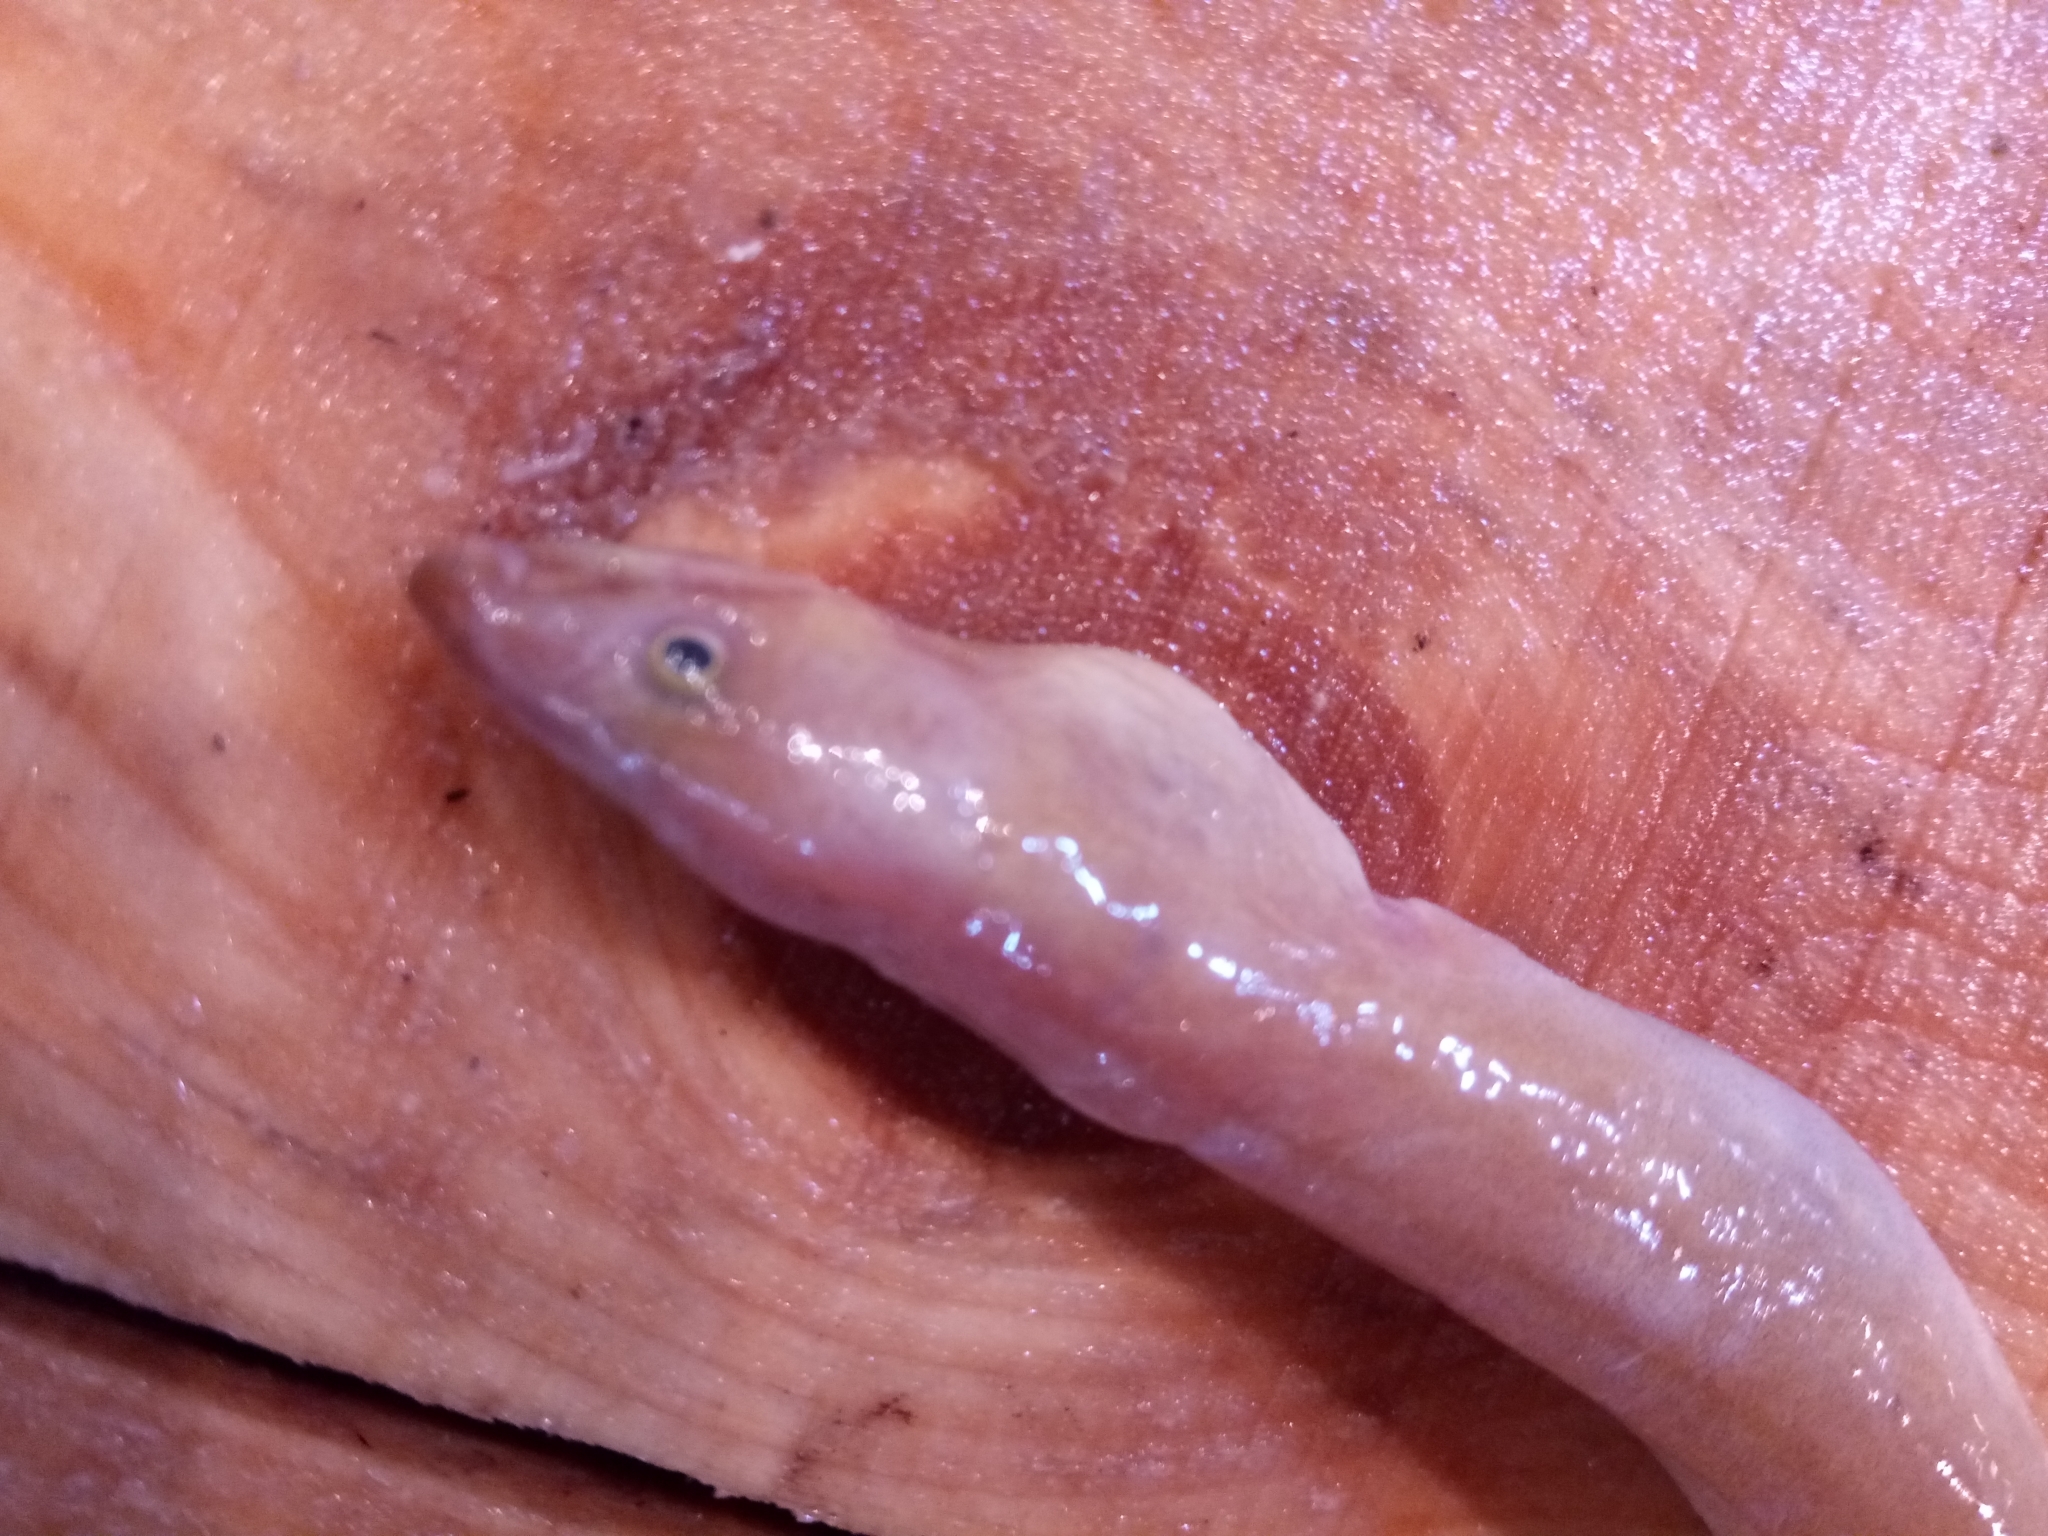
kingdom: Animalia
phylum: Chordata
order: Anguilliformes
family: Ophichthidae
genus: Ophichthus
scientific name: Ophichthus rufus
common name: Rufus snake eel
